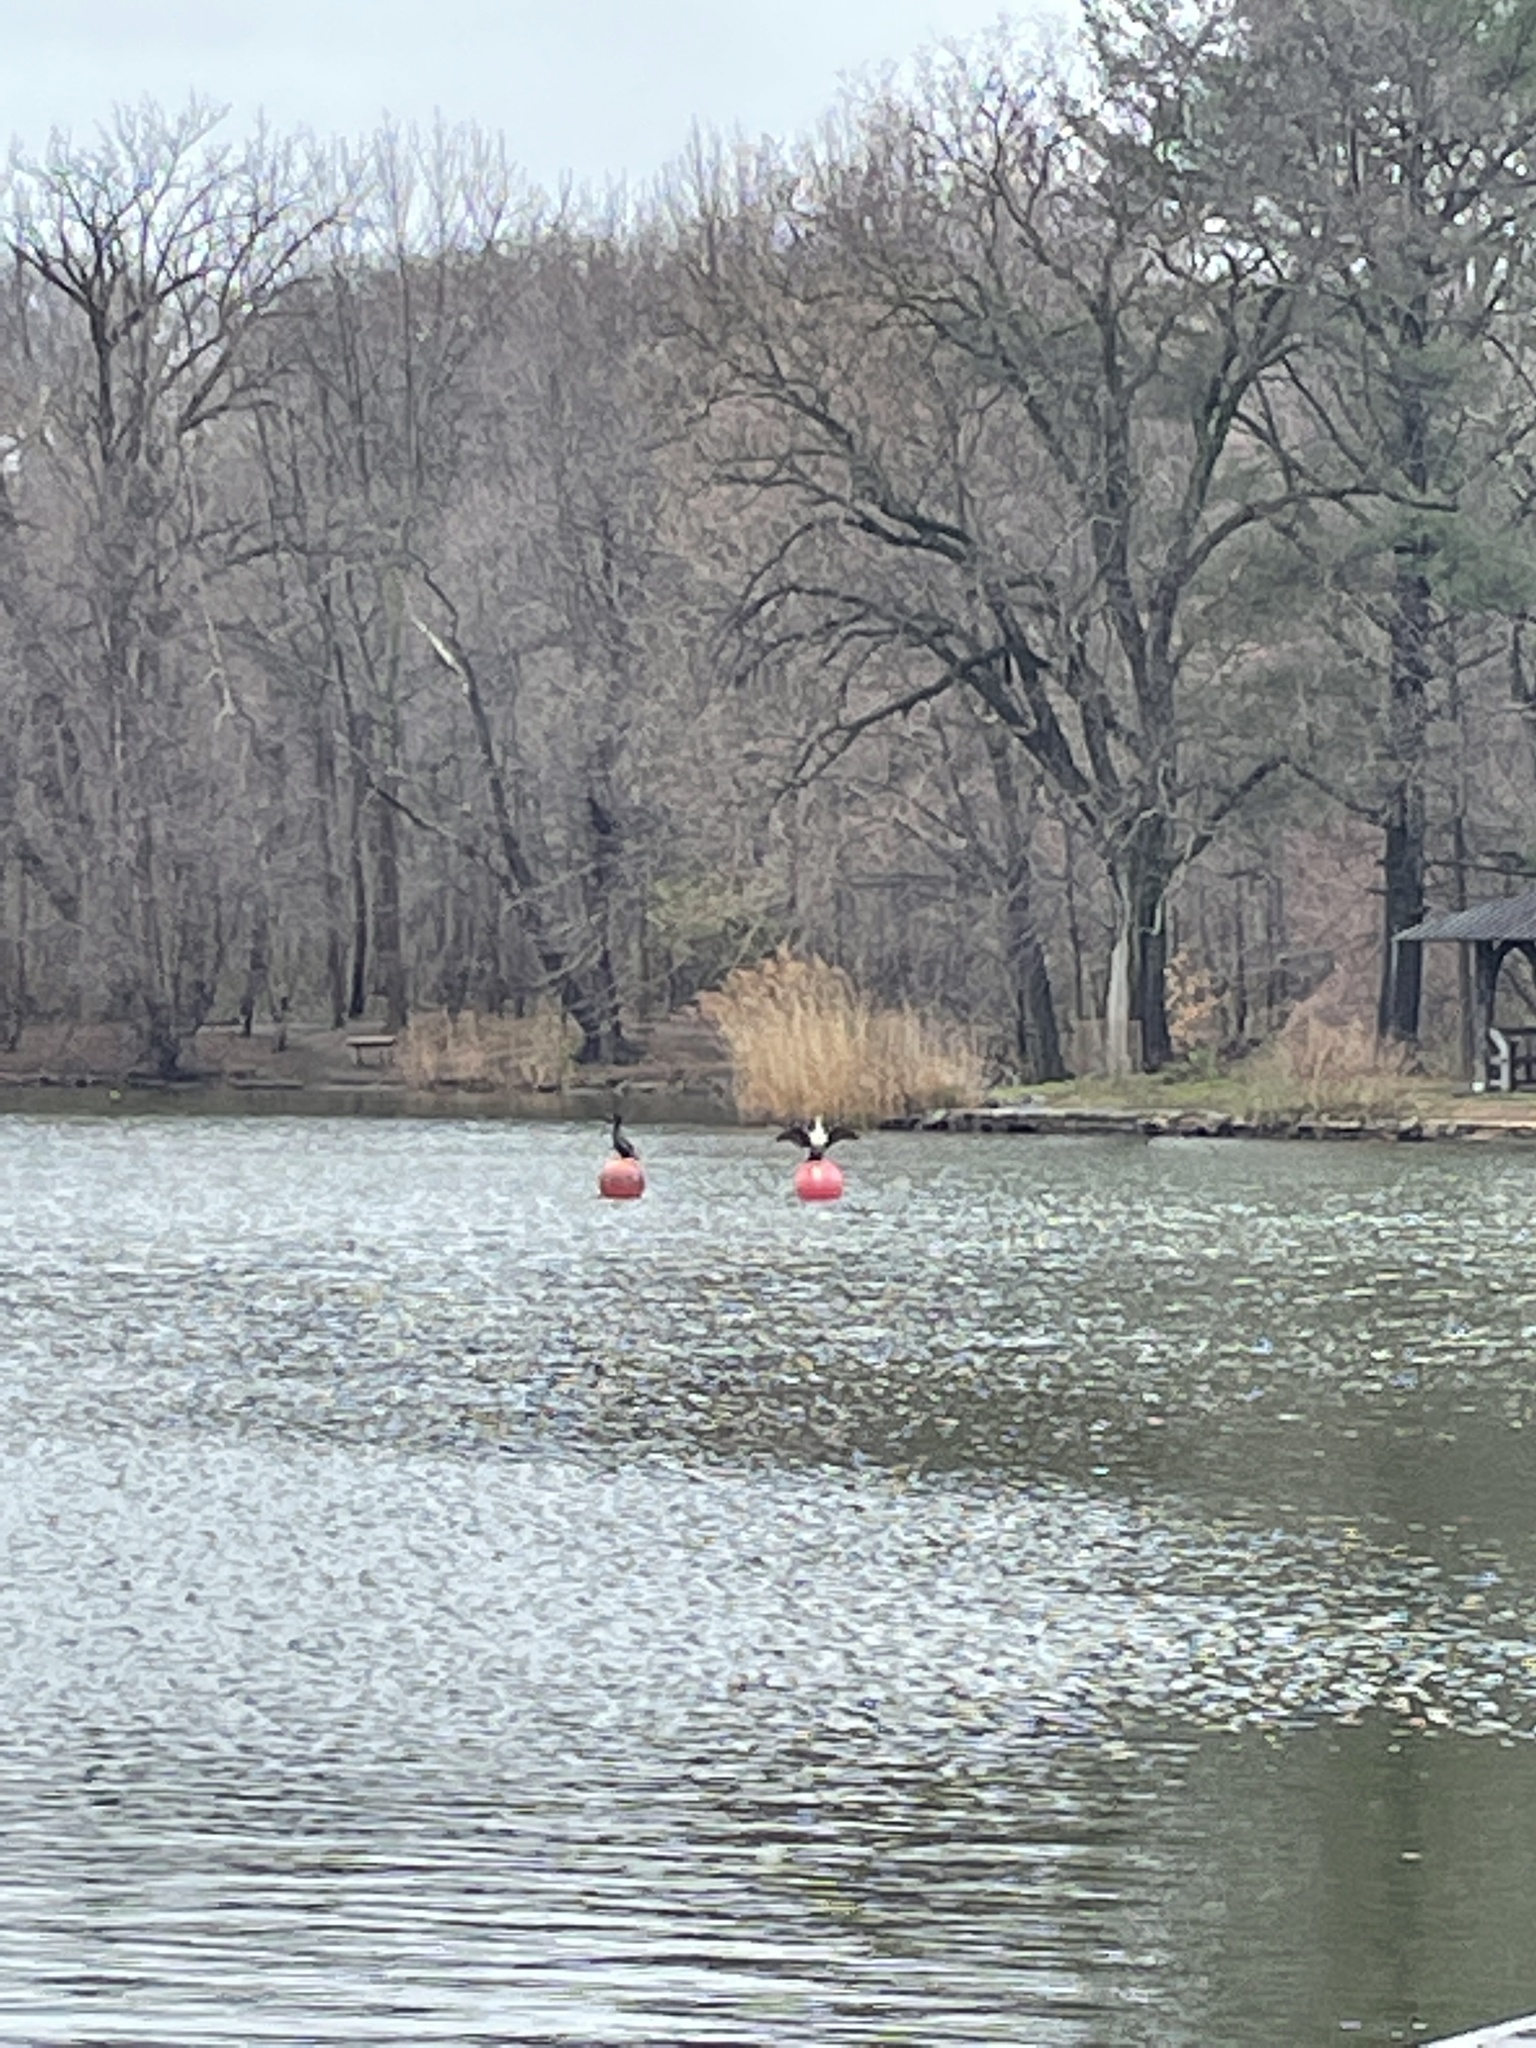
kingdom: Animalia
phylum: Chordata
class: Aves
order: Suliformes
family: Phalacrocoracidae
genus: Phalacrocorax
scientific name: Phalacrocorax auritus
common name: Double-crested cormorant
